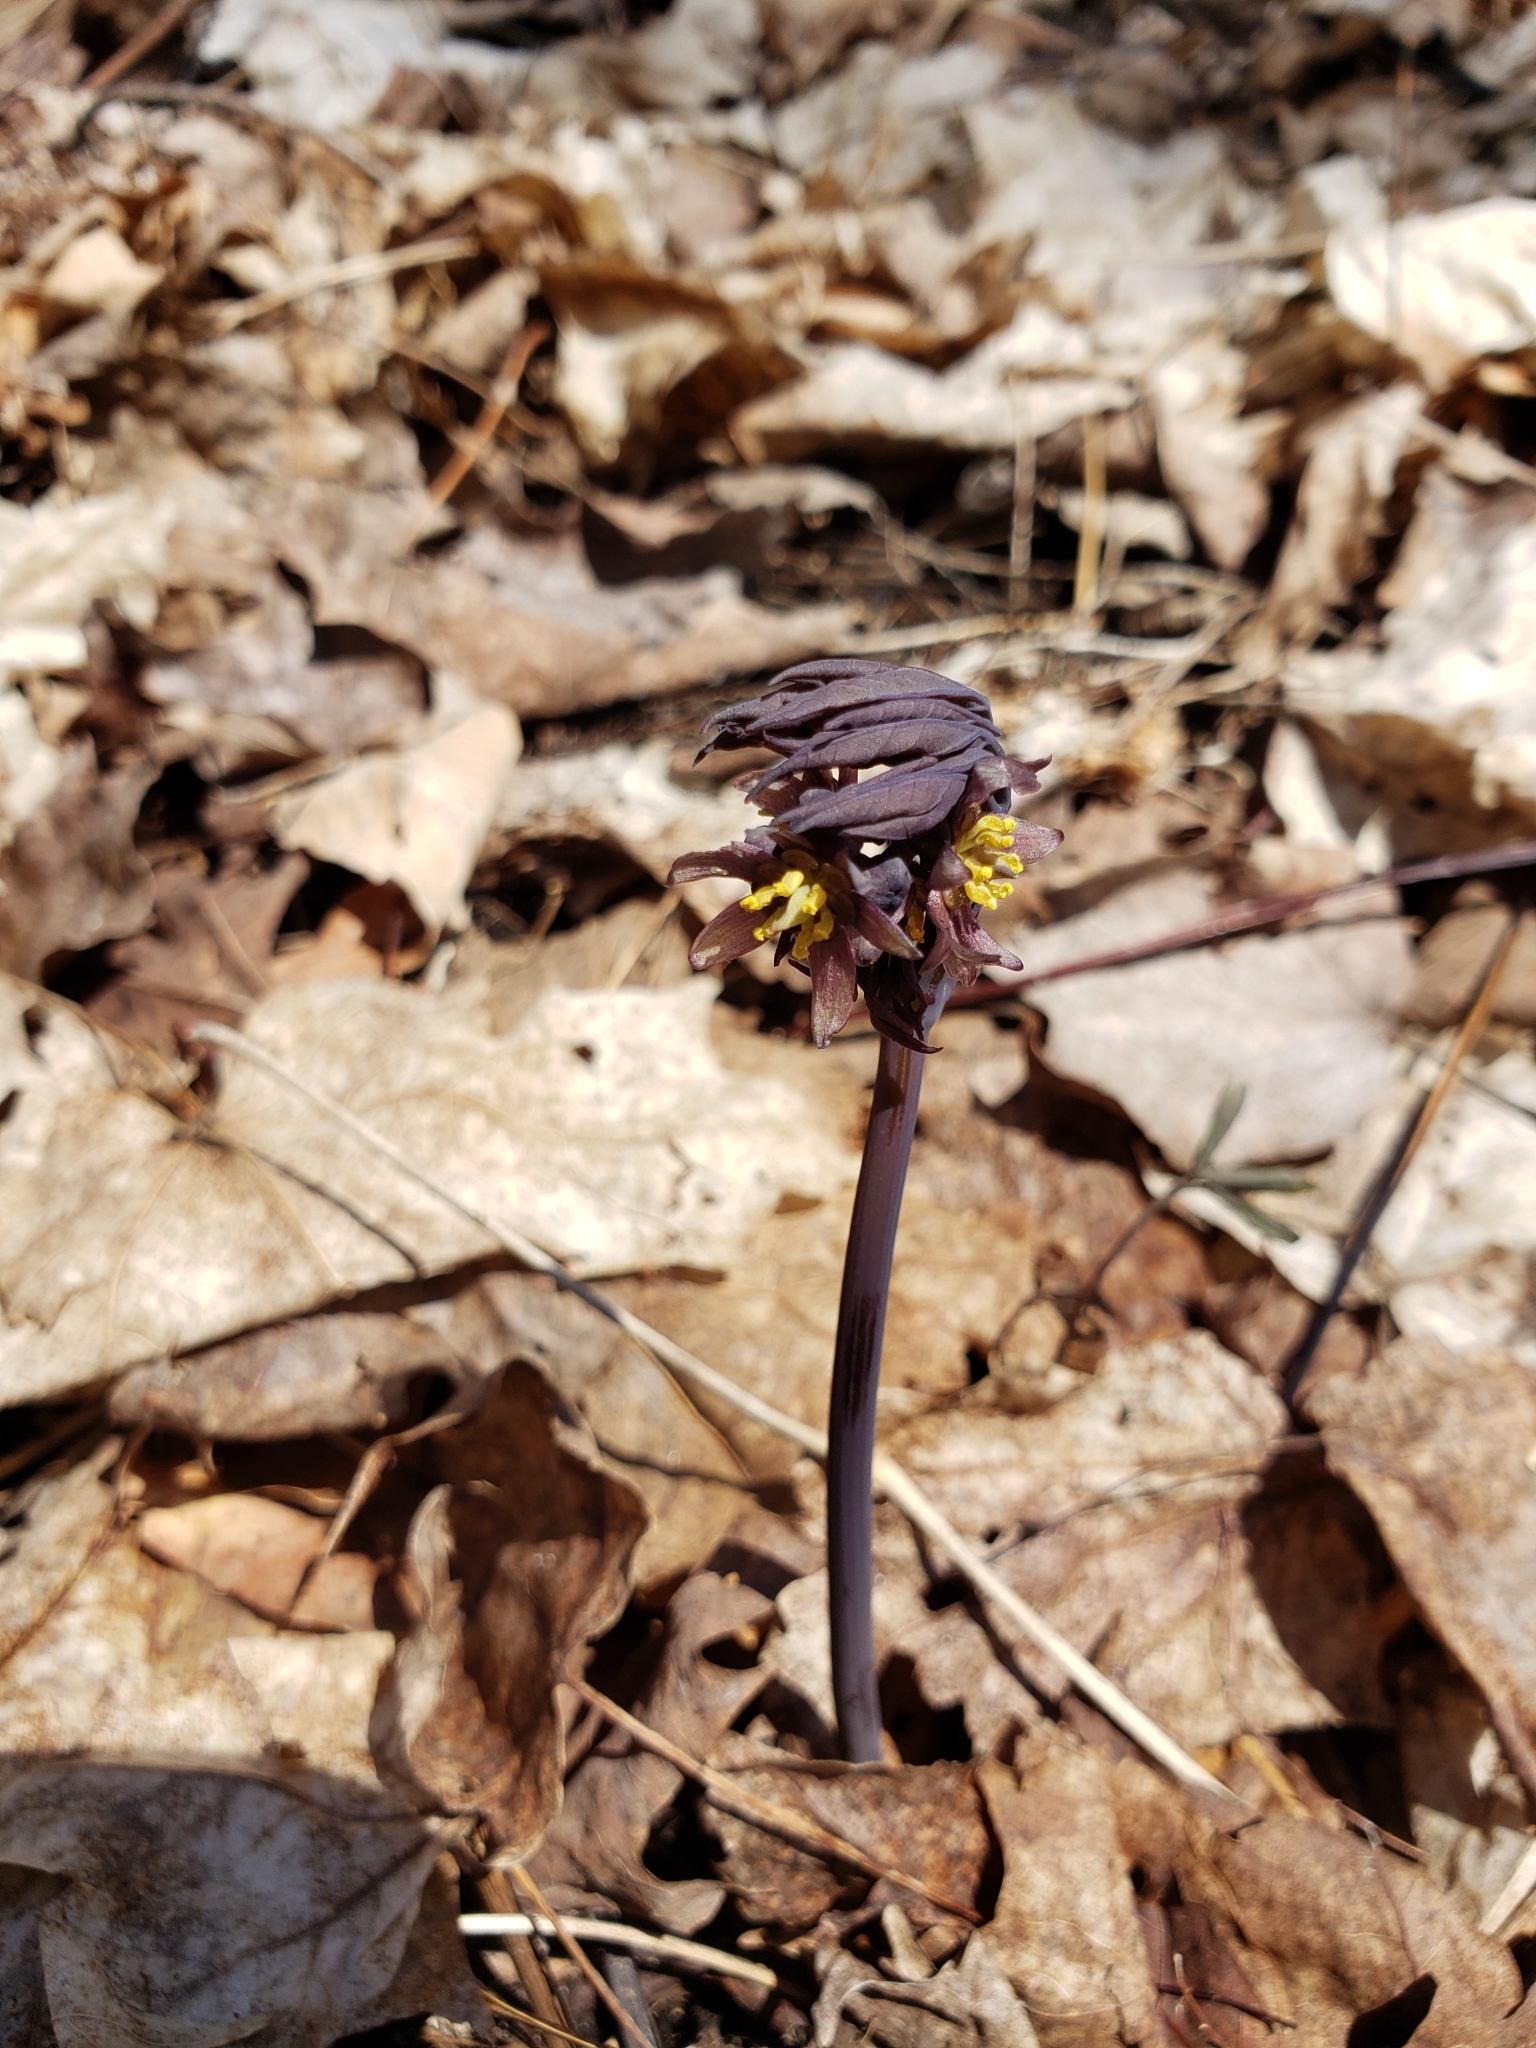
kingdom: Plantae
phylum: Tracheophyta
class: Magnoliopsida
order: Ranunculales
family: Berberidaceae
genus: Caulophyllum
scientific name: Caulophyllum giganteum
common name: Blue cohosh
